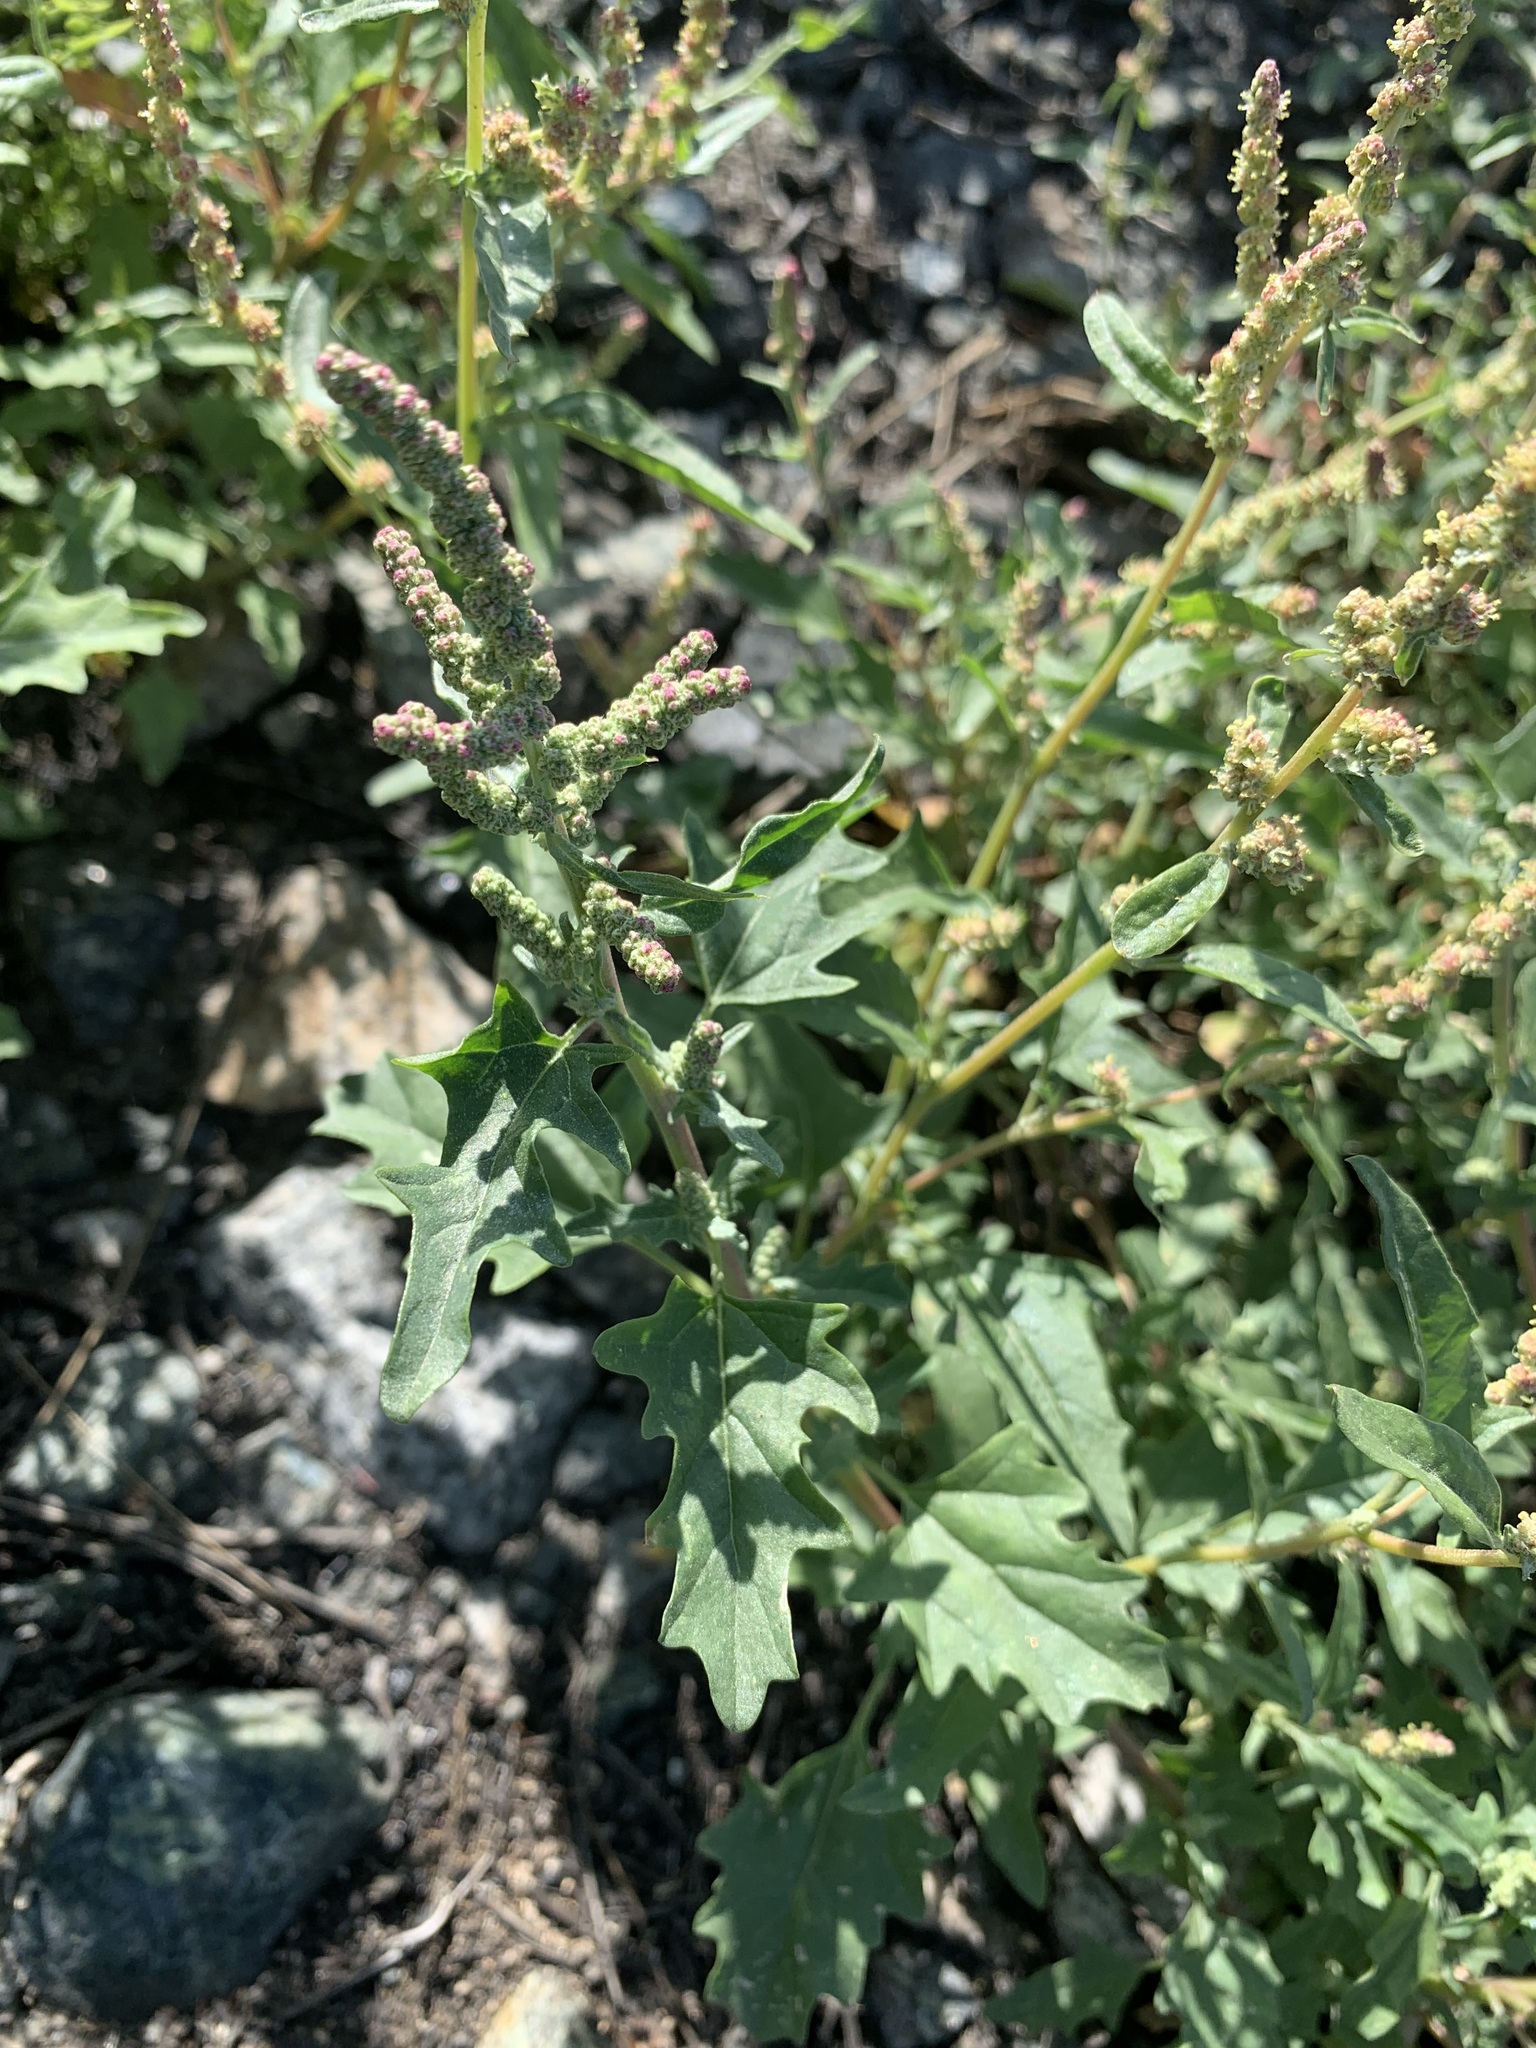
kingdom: Plantae
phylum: Tracheophyta
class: Magnoliopsida
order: Caryophyllales
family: Amaranthaceae
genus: Atriplex
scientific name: Atriplex tatarica
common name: Tatarian orache
